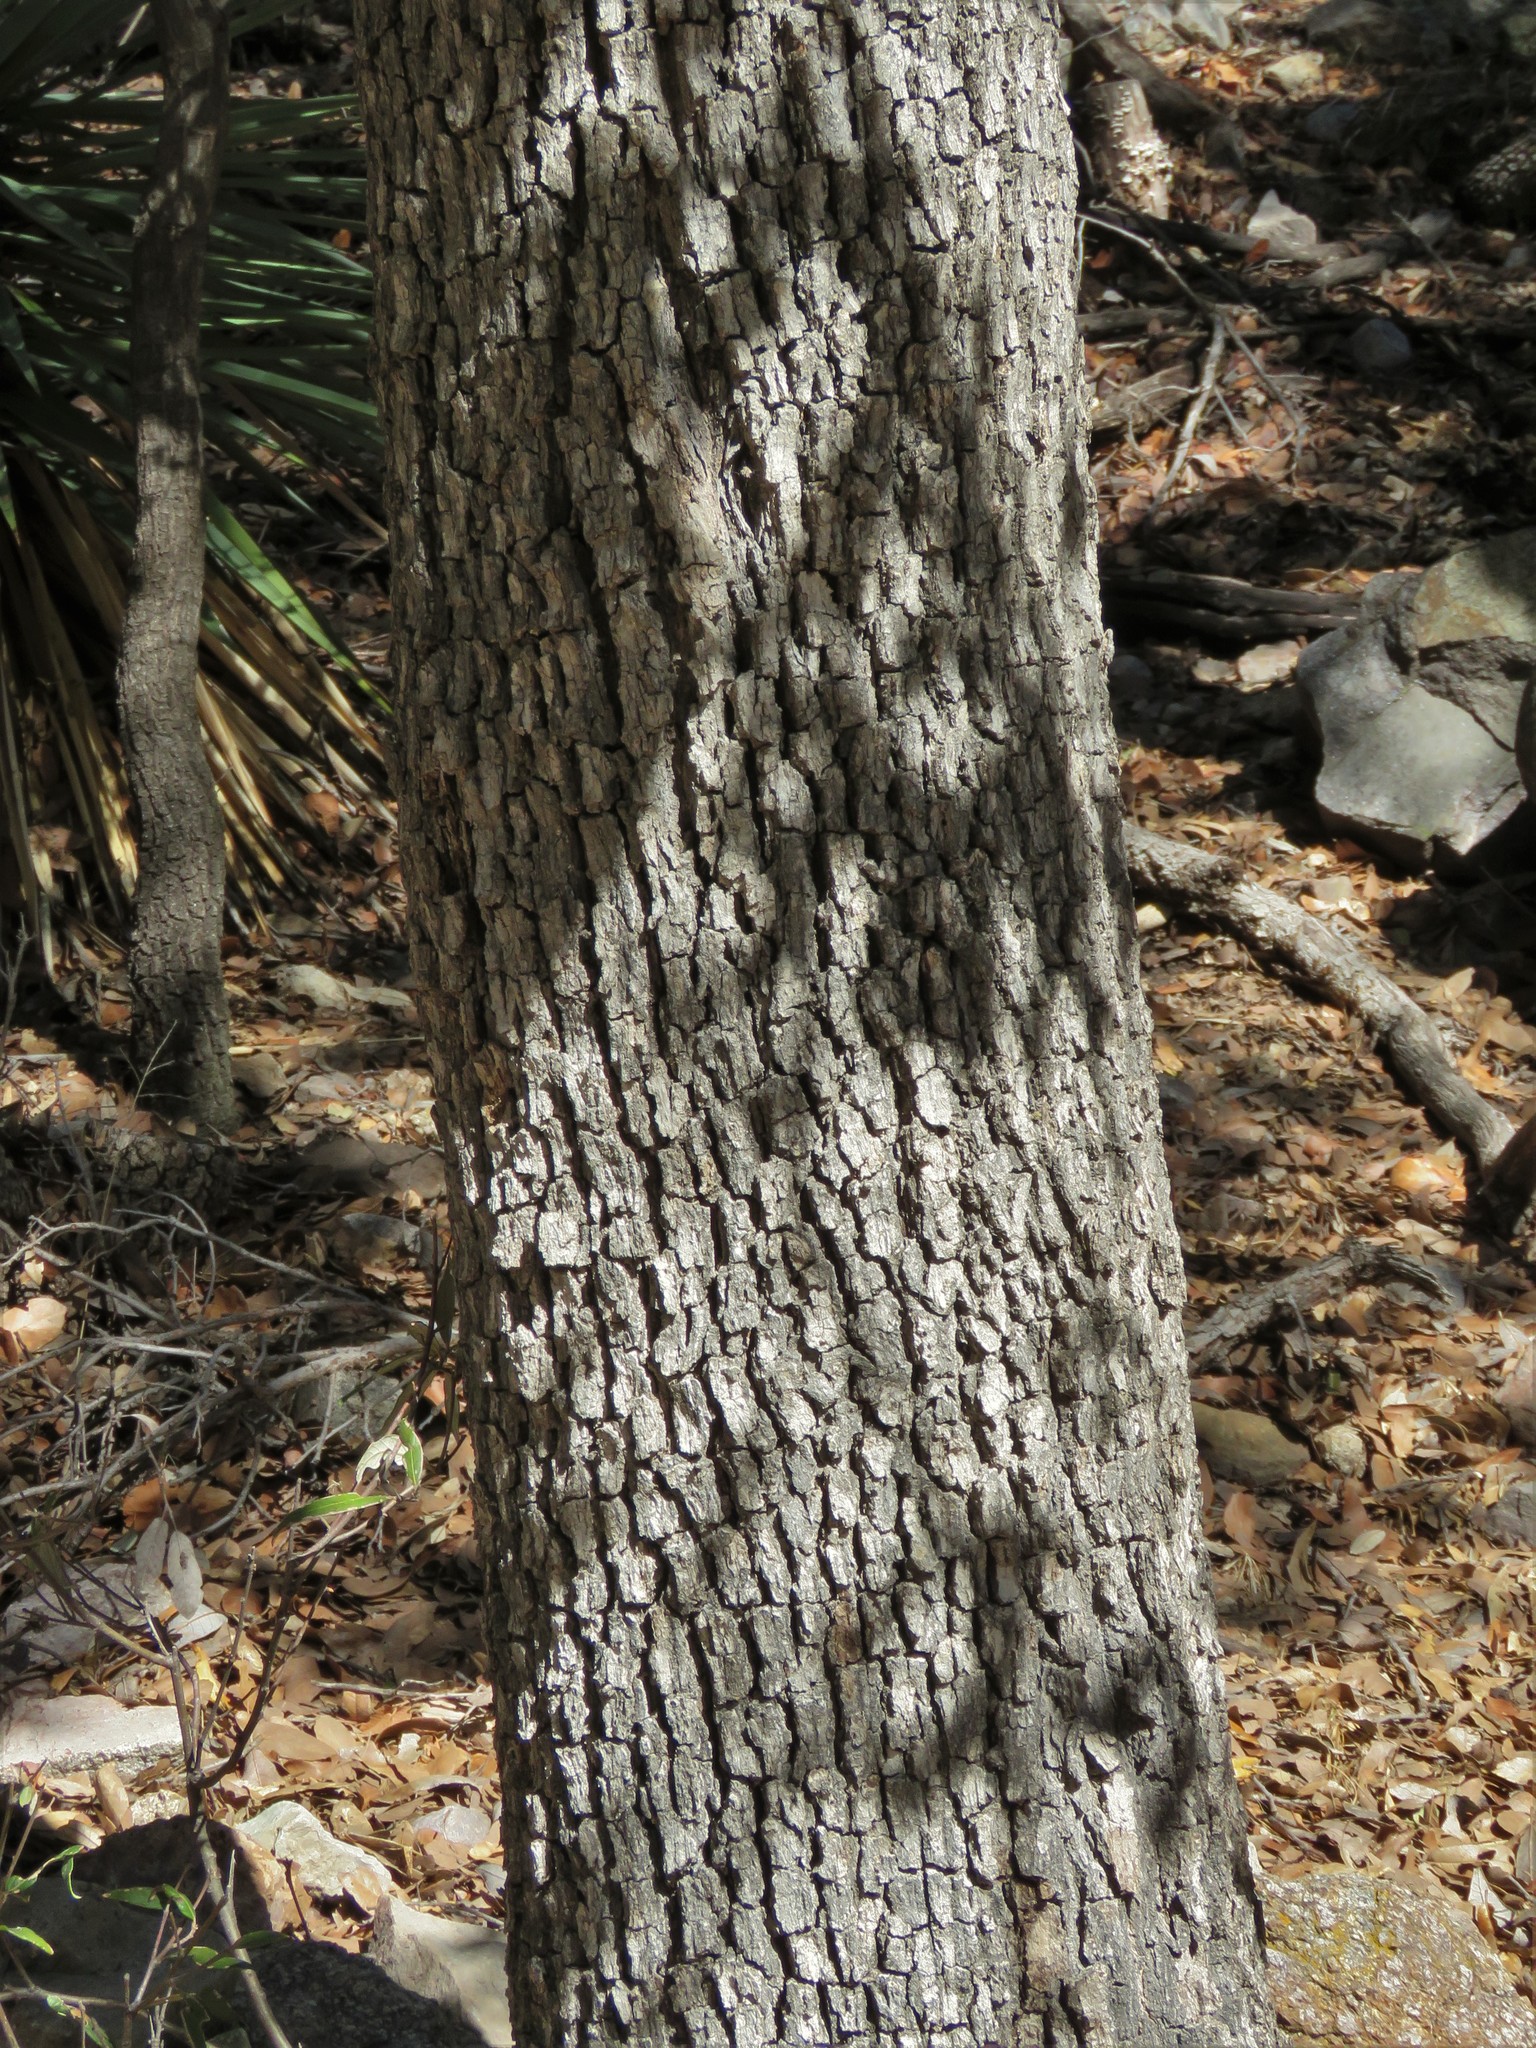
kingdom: Plantae
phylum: Tracheophyta
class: Magnoliopsida
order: Fagales
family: Fagaceae
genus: Quercus
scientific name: Quercus arizonica
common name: Arizona white oak
